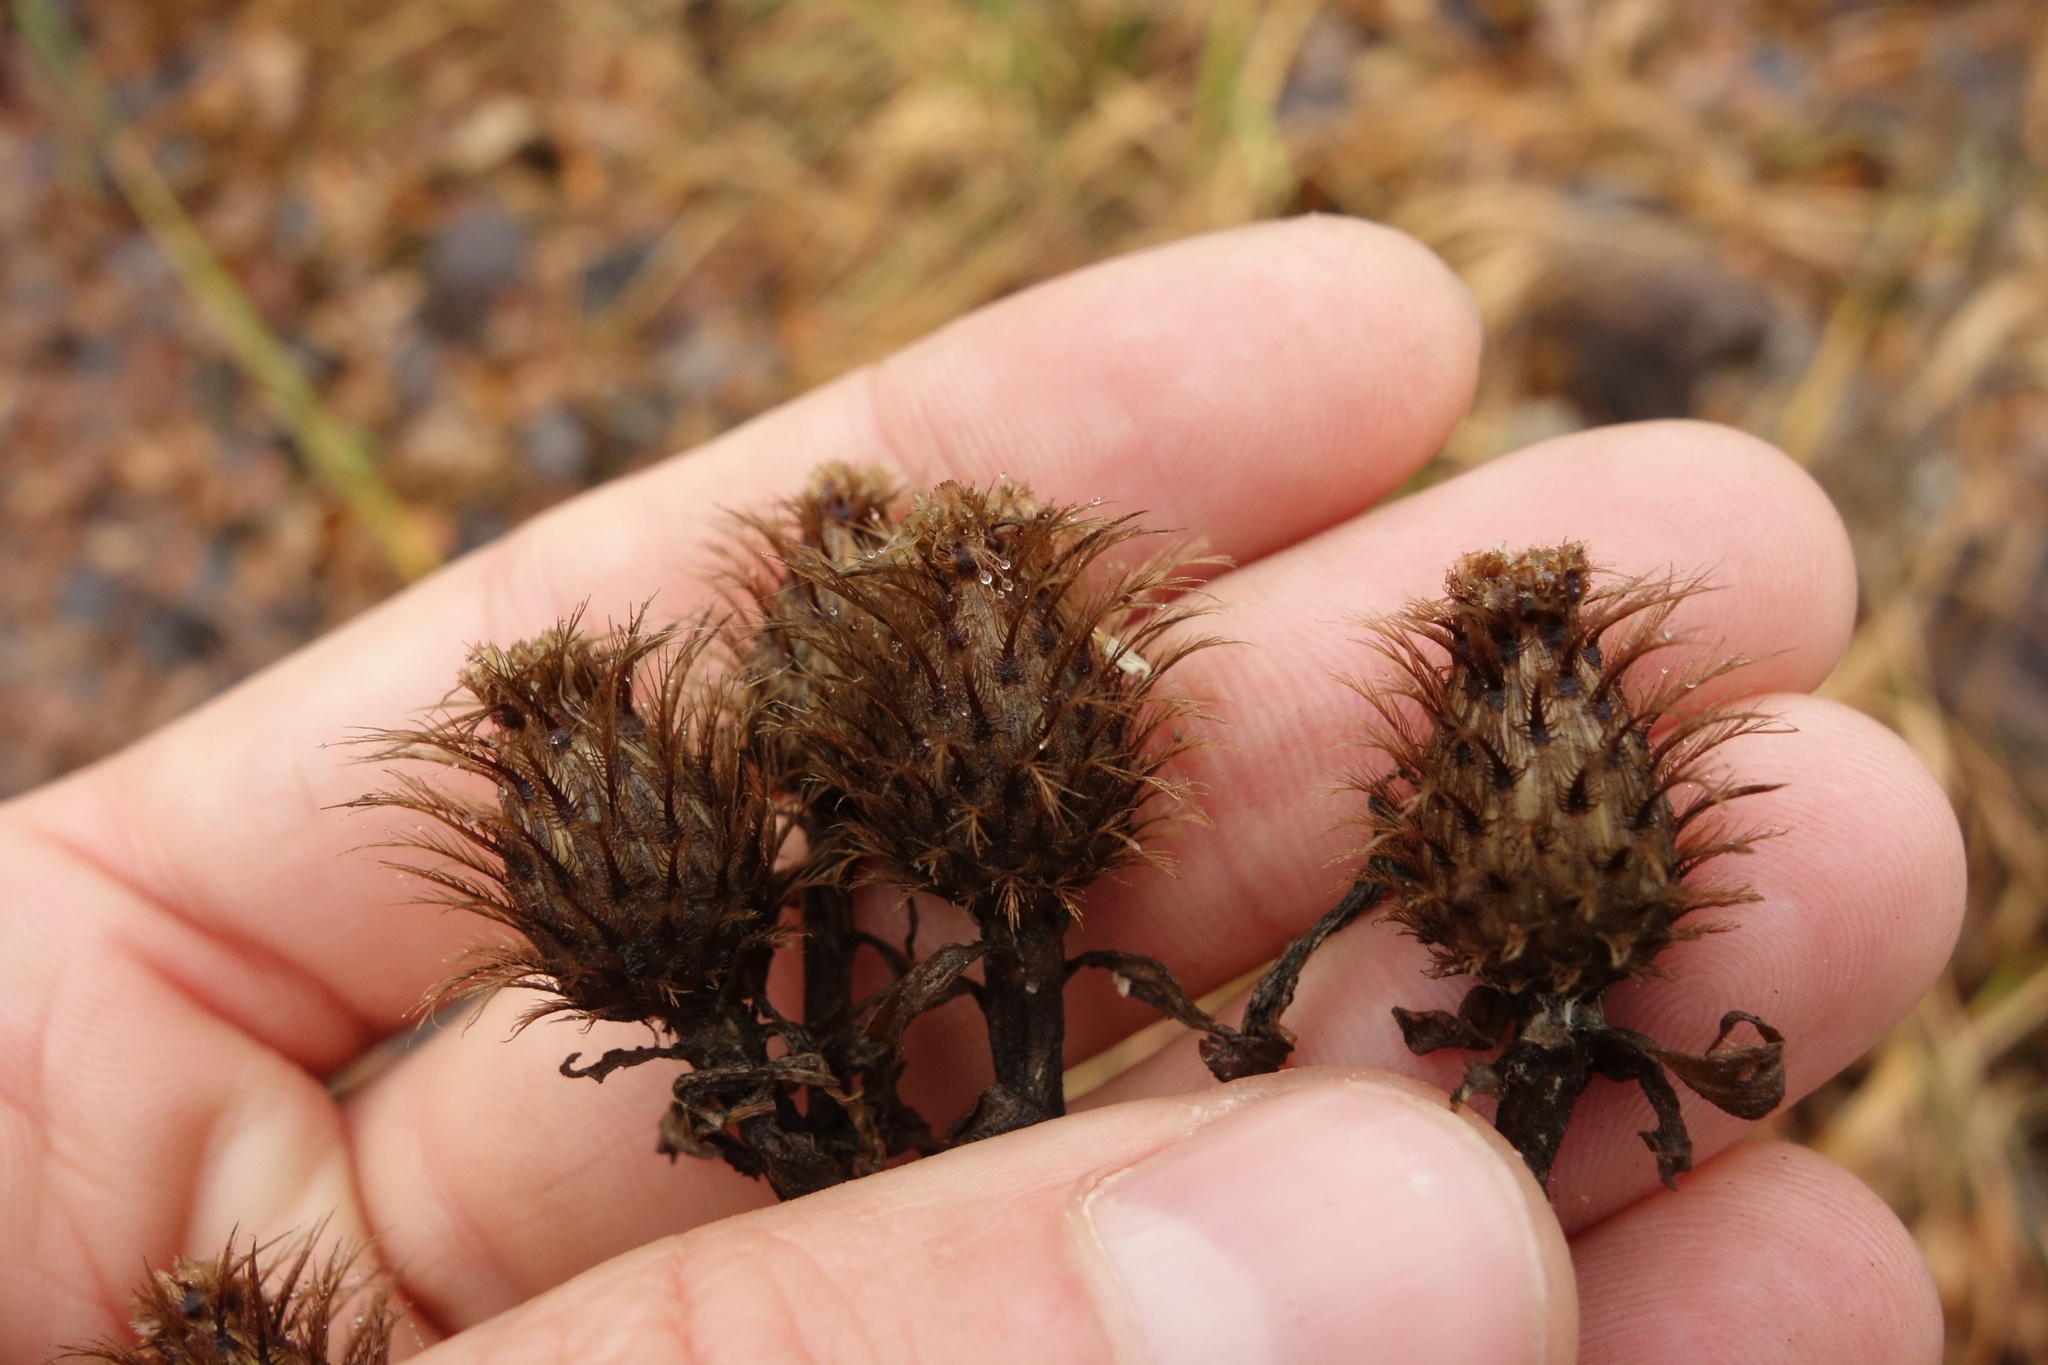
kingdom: Plantae
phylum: Tracheophyta
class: Magnoliopsida
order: Asterales
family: Asteraceae
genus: Centaurea
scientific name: Centaurea pseudophrygia
